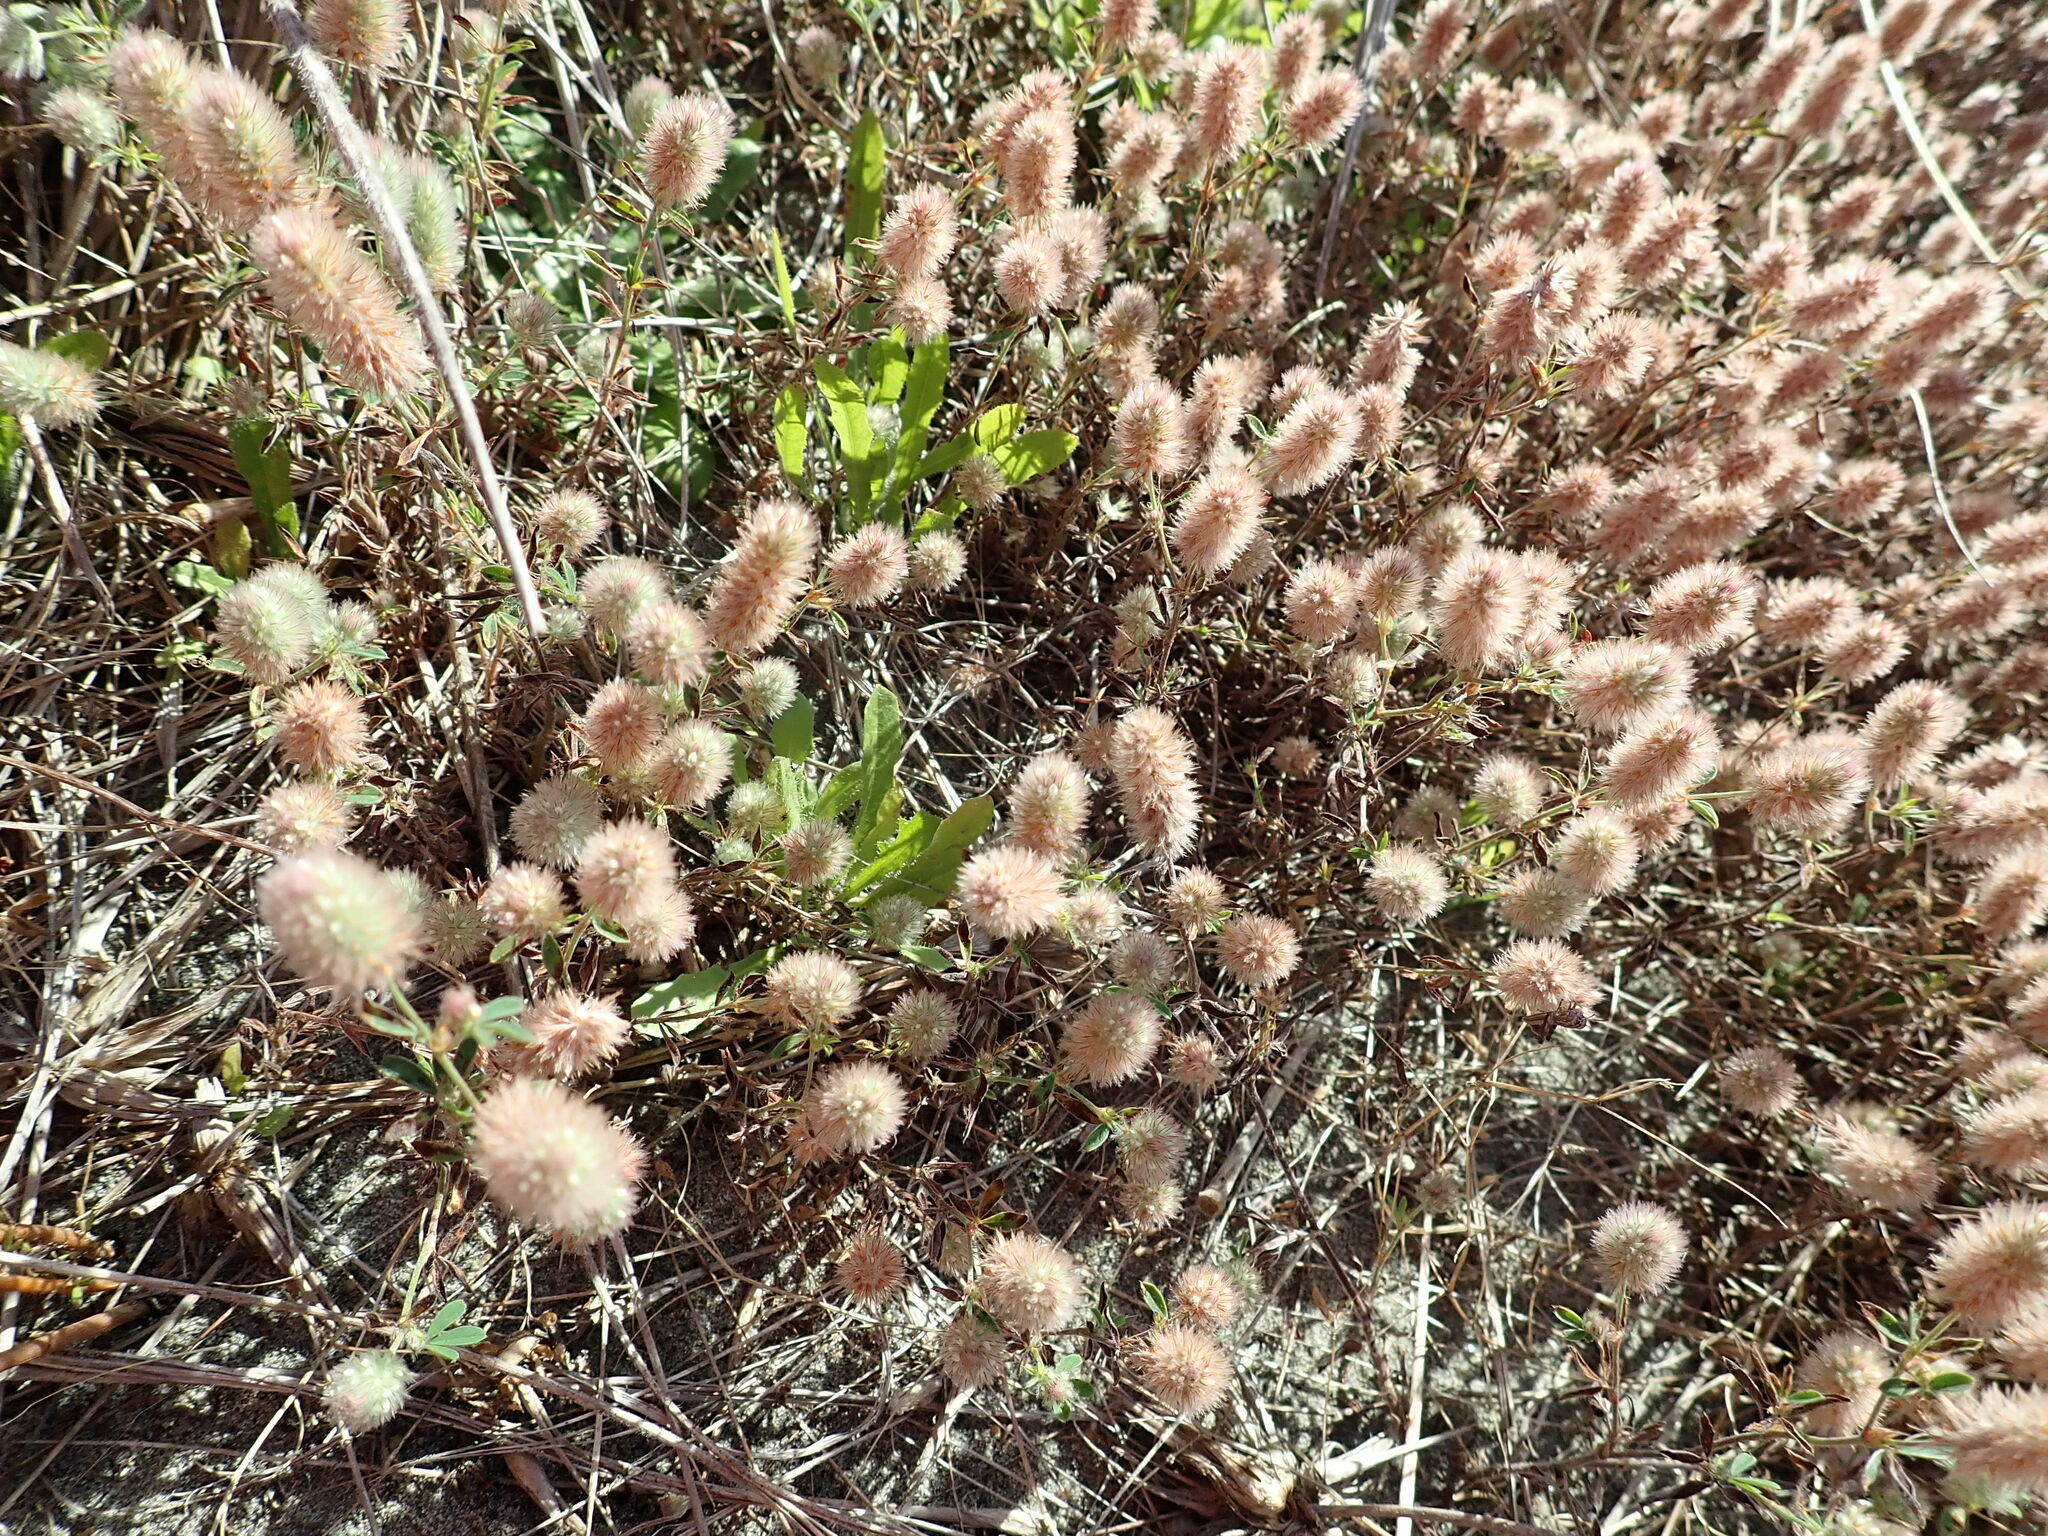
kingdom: Plantae
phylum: Tracheophyta
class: Magnoliopsida
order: Fabales
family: Fabaceae
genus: Trifolium
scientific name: Trifolium arvense
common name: Hare's-foot clover
